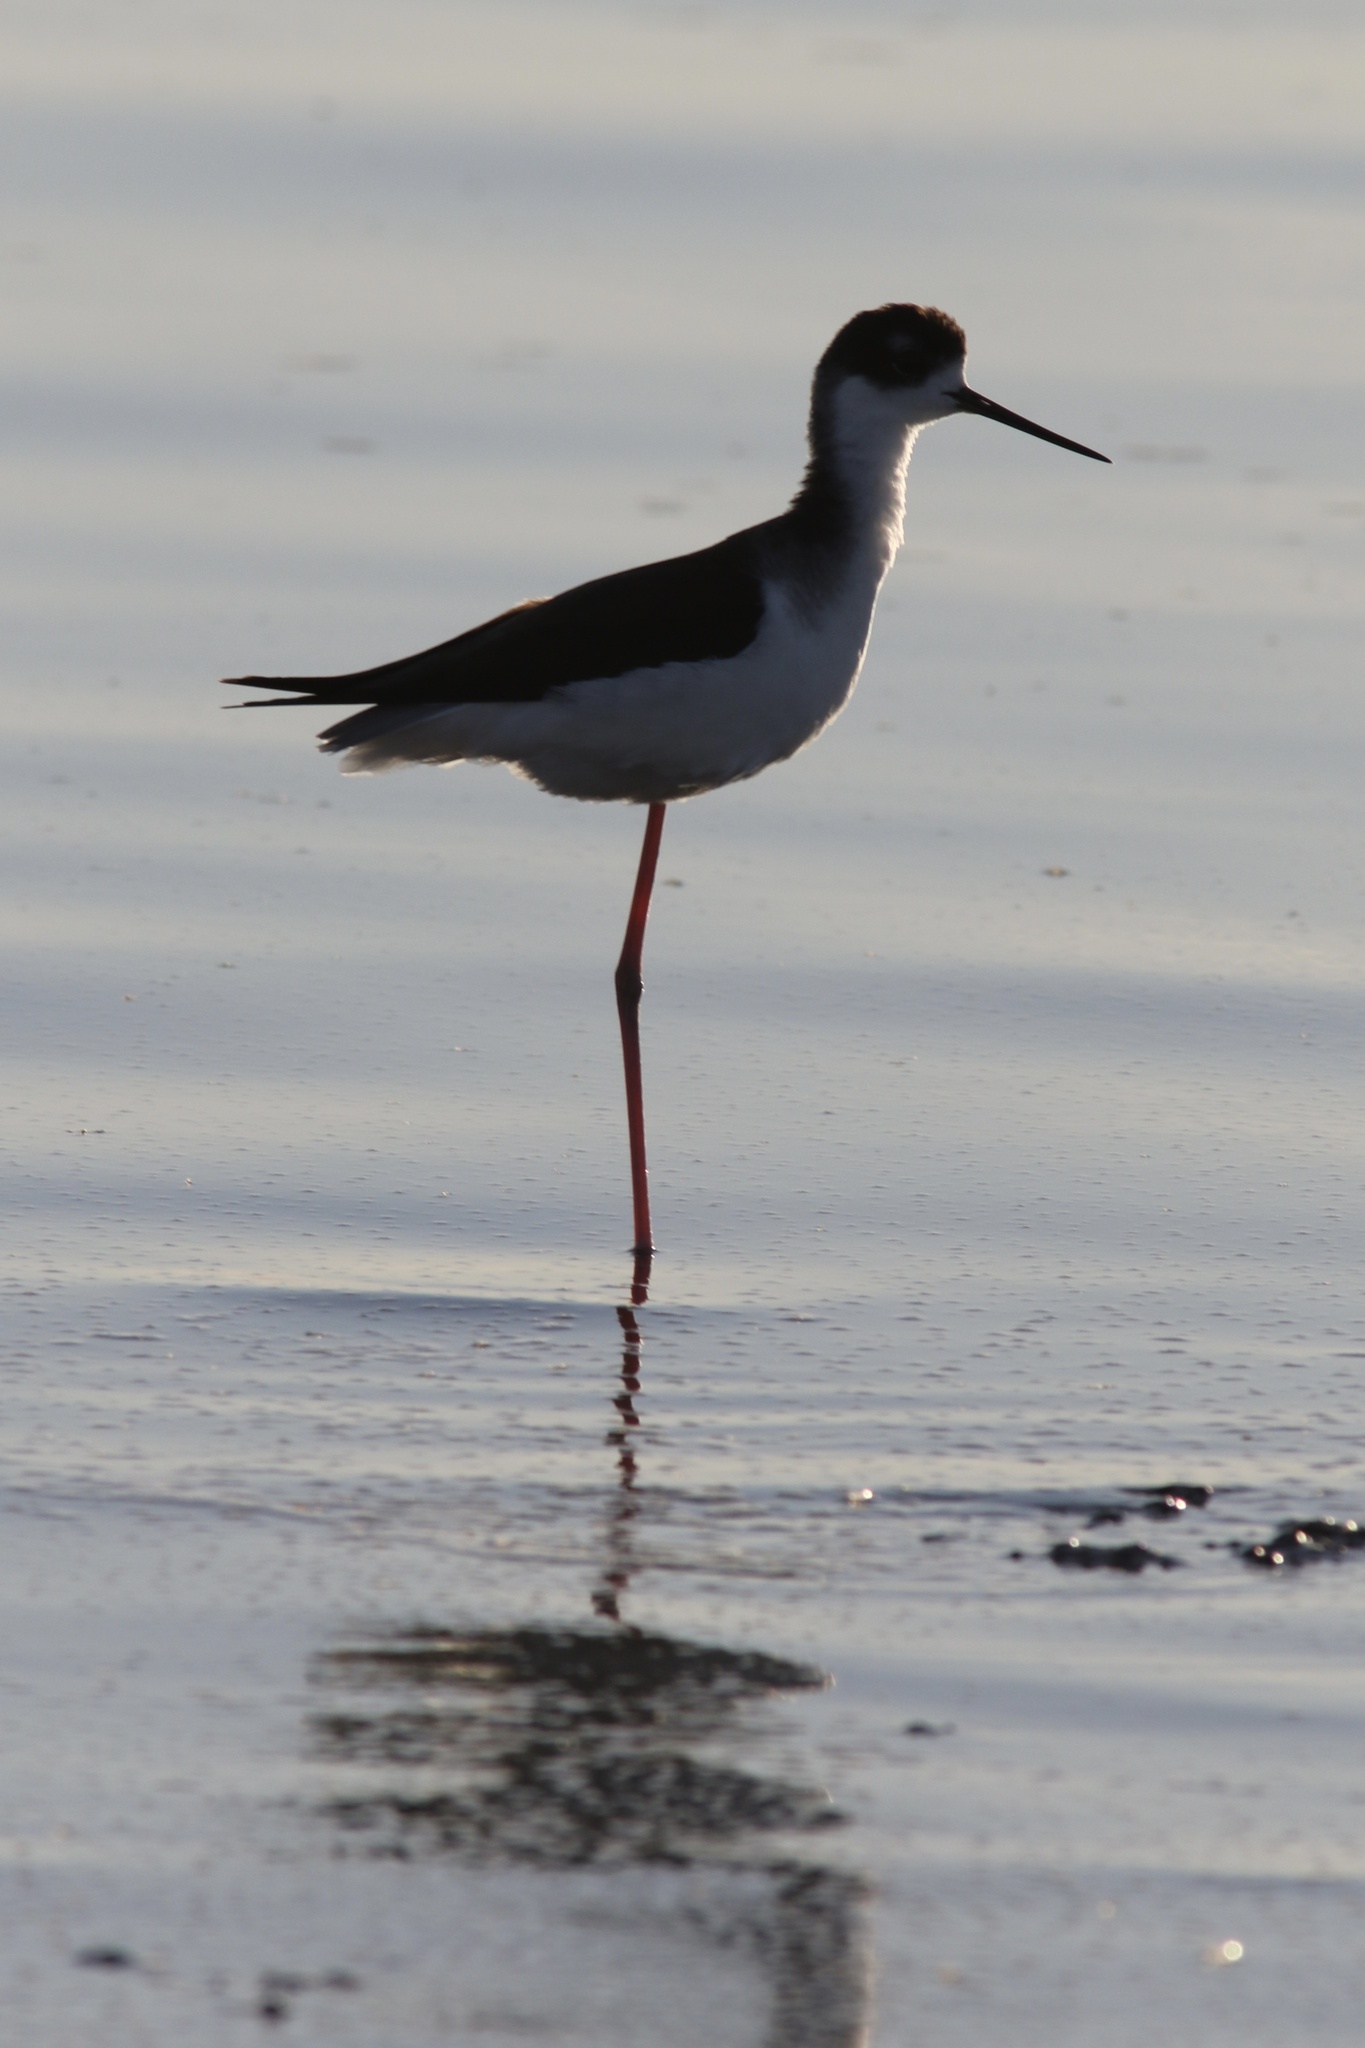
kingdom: Animalia
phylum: Chordata
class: Aves
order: Charadriiformes
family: Recurvirostridae
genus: Himantopus
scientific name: Himantopus mexicanus
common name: Black-necked stilt
